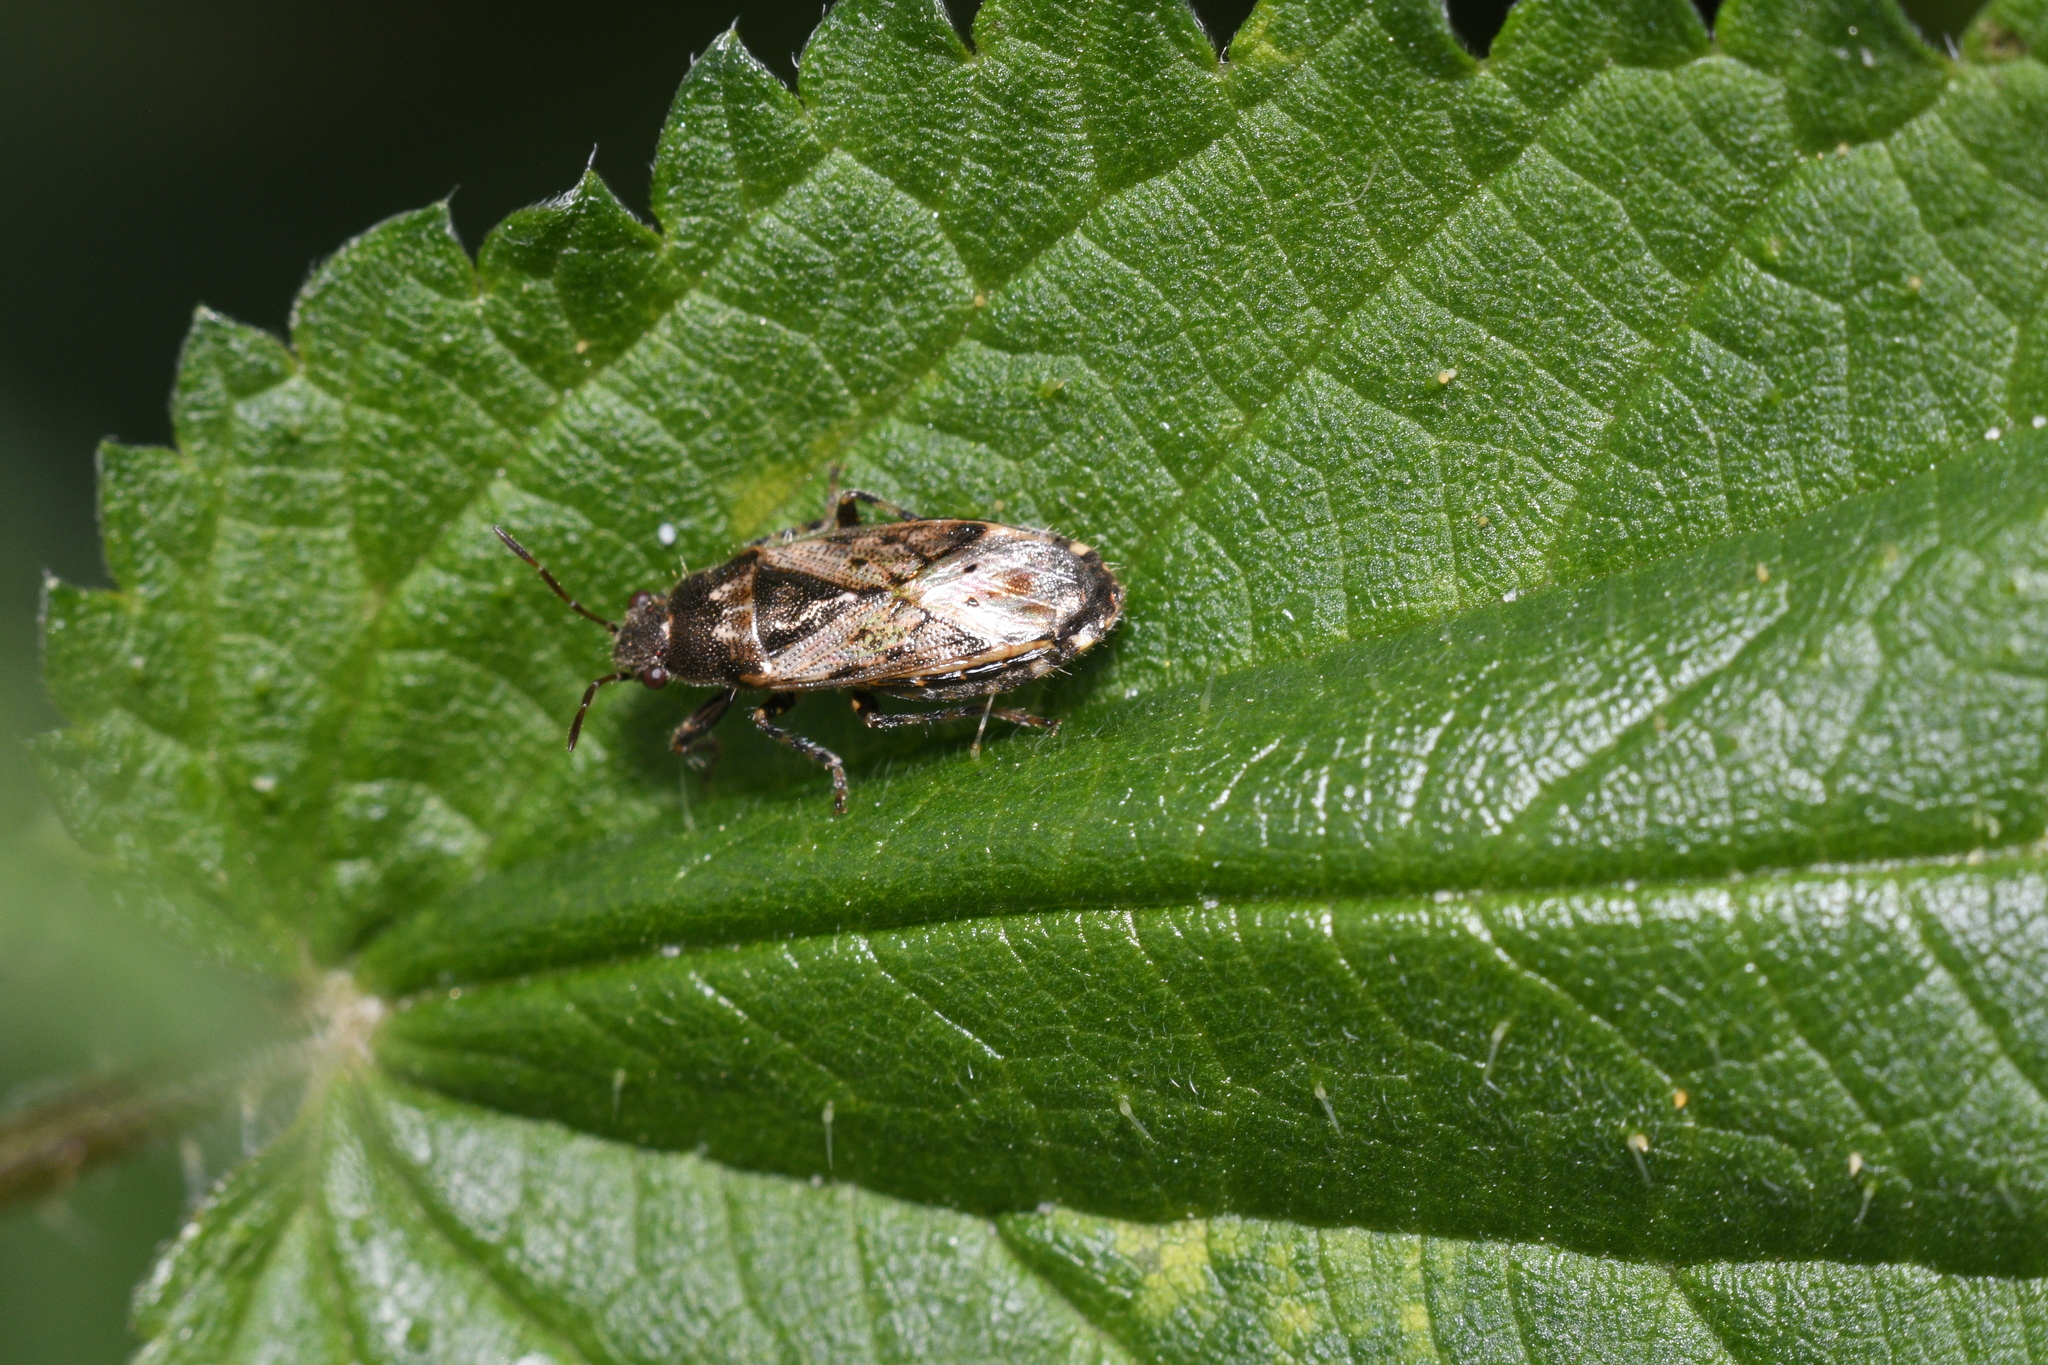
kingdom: Animalia
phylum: Arthropoda
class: Insecta
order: Hemiptera
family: Heterogastridae
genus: Heterogaster
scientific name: Heterogaster urticae
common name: Seed bug
